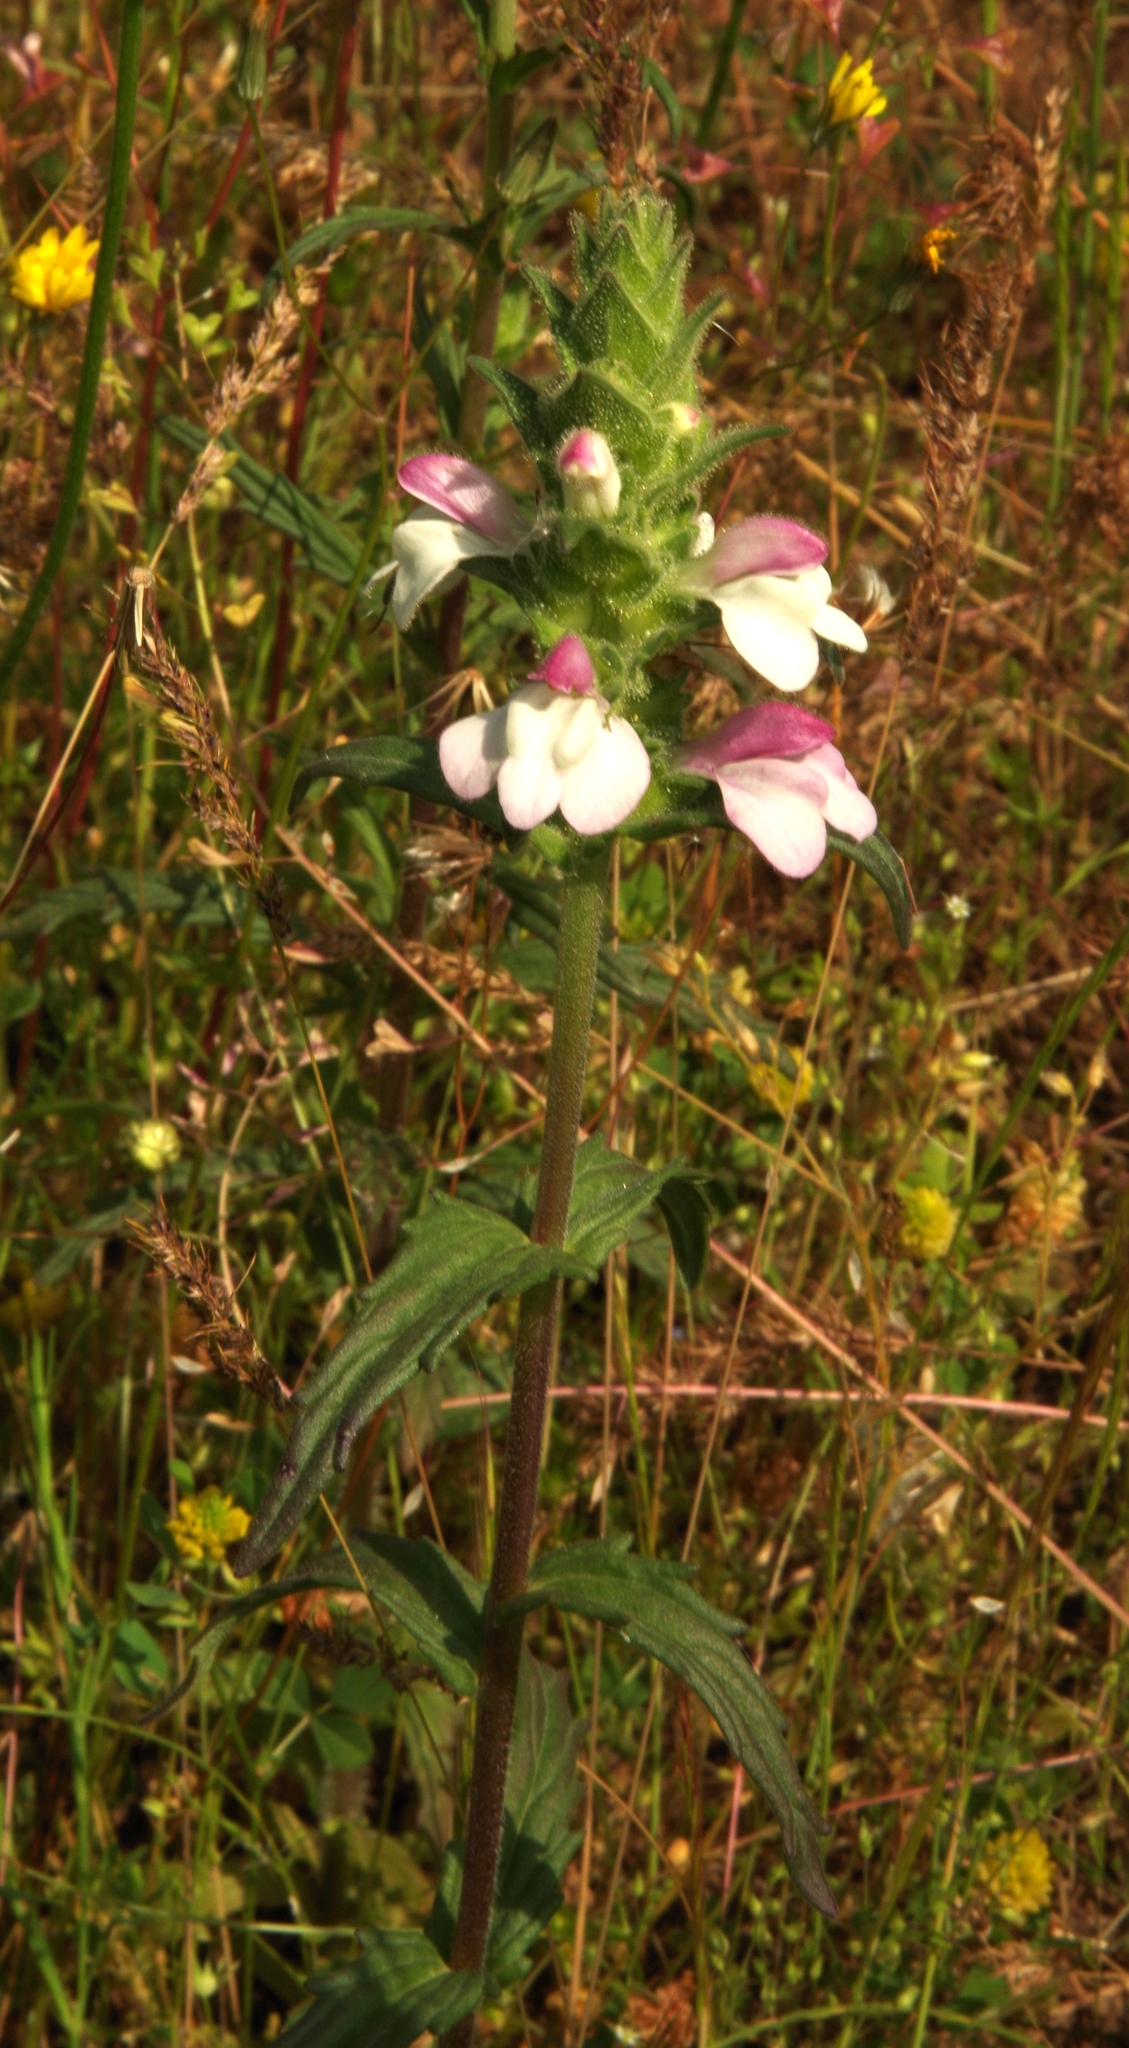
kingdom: Plantae
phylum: Tracheophyta
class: Magnoliopsida
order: Lamiales
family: Orobanchaceae
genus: Bellardia
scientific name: Bellardia trixago
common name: Mediterranean lineseed
